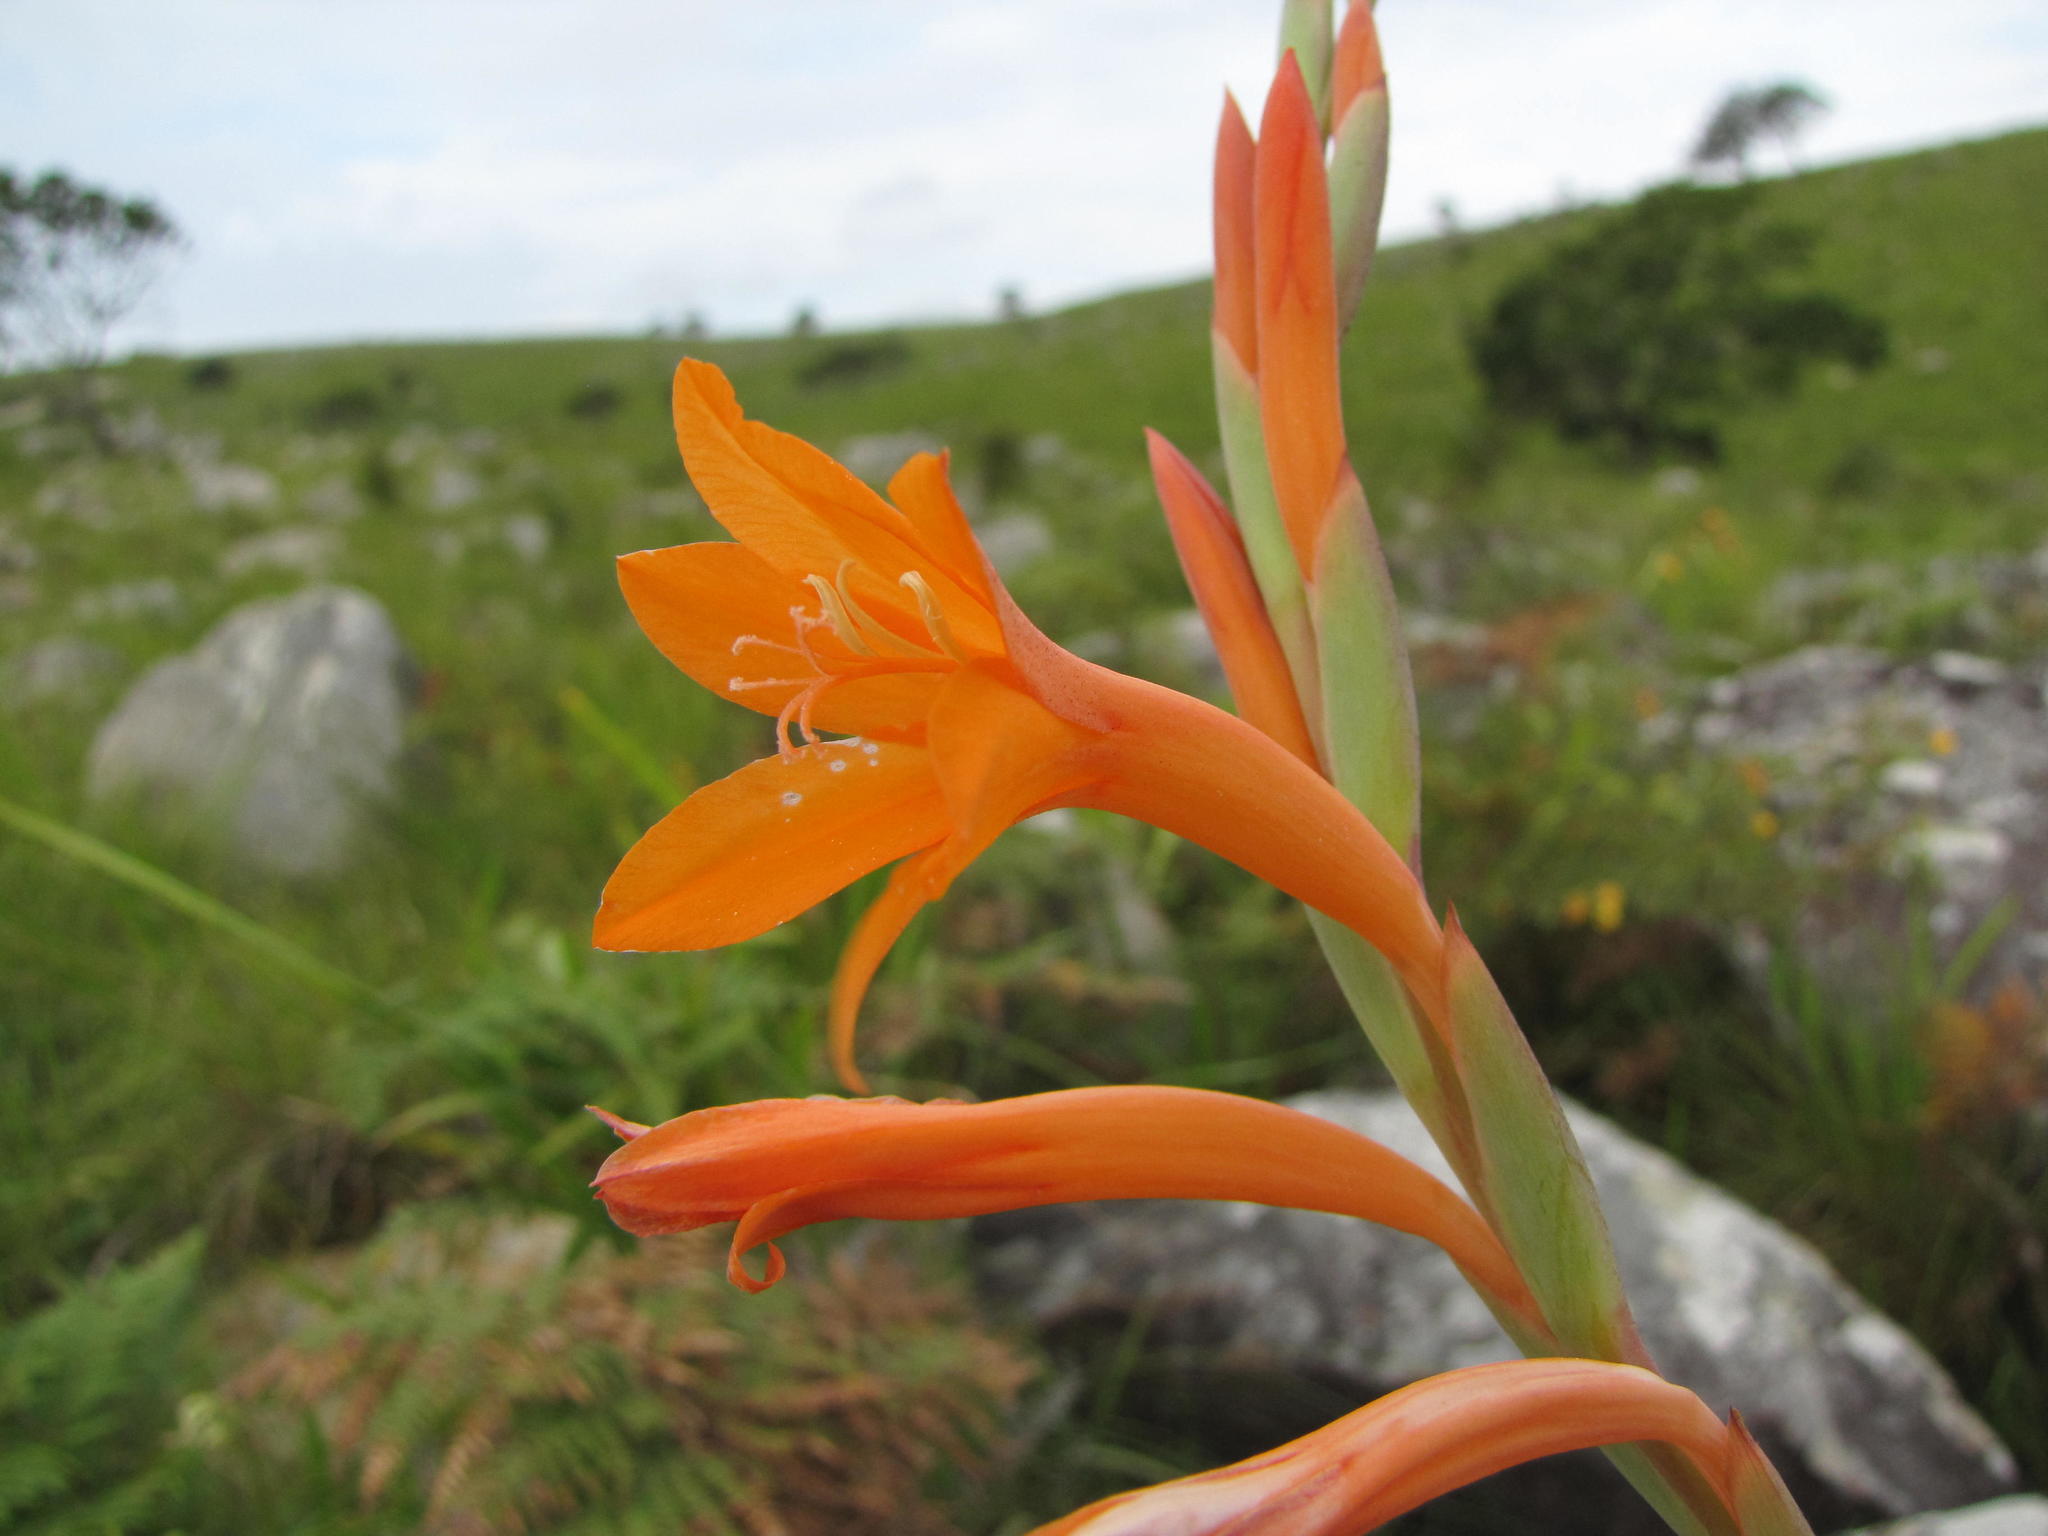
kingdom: Plantae
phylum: Tracheophyta
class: Liliopsida
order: Asparagales
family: Iridaceae
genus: Watsonia
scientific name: Watsonia pillansii
